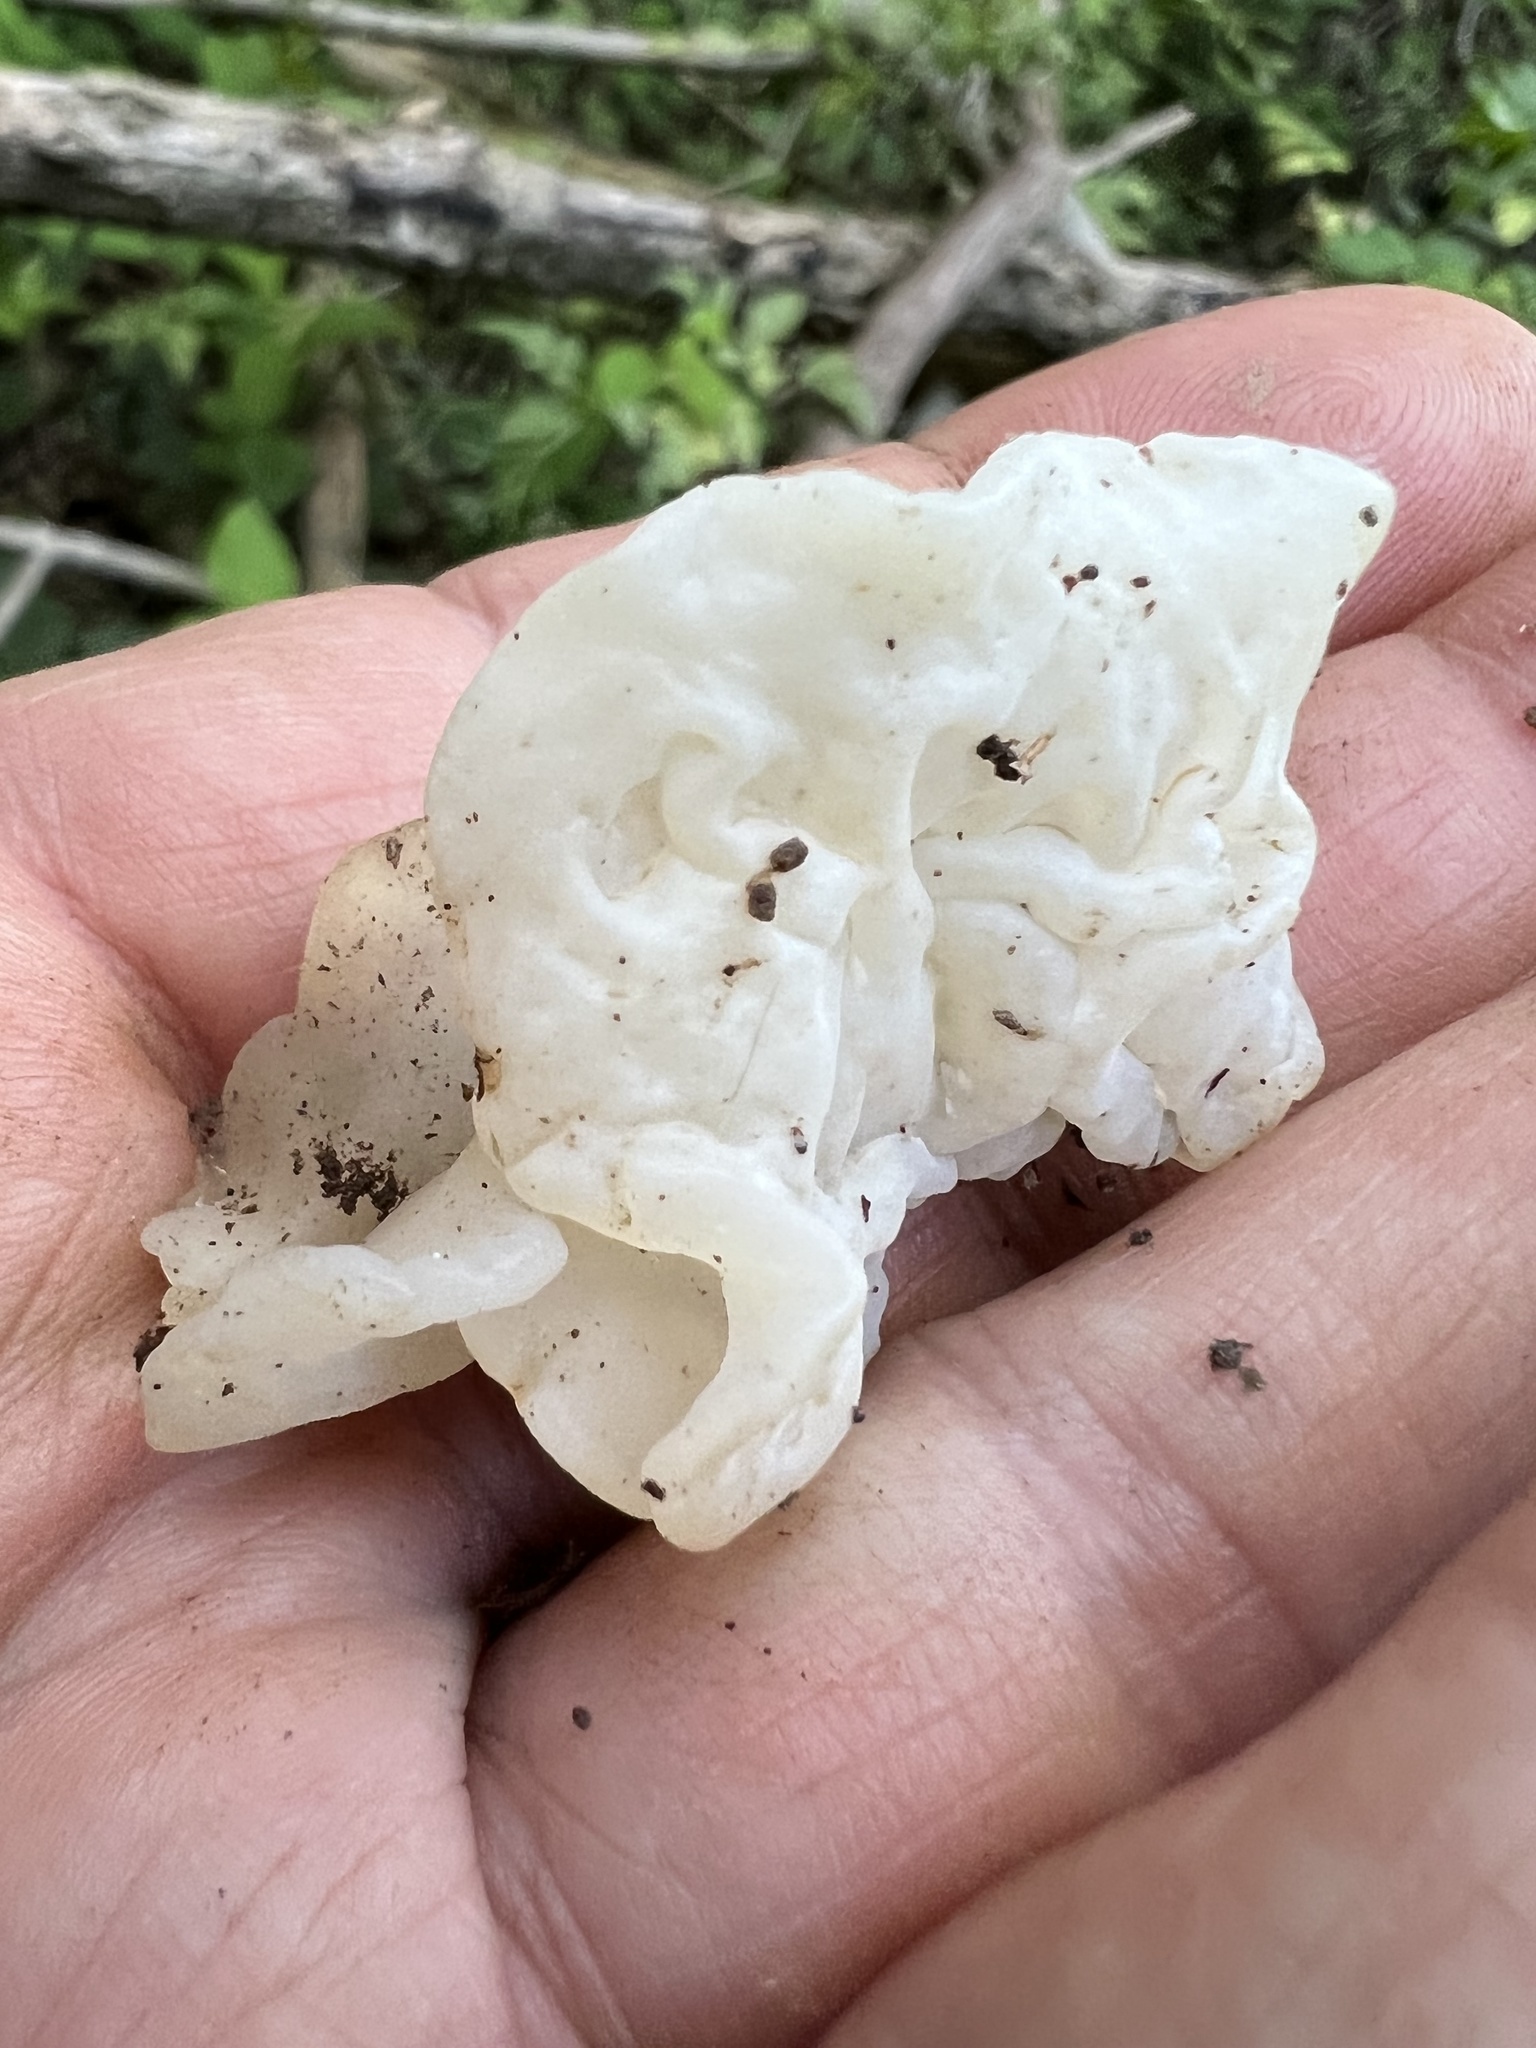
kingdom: Fungi
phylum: Basidiomycota
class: Agaricomycetes
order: Auriculariales
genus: Ductifera
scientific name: Ductifera pululahuana
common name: White jelly fungus
